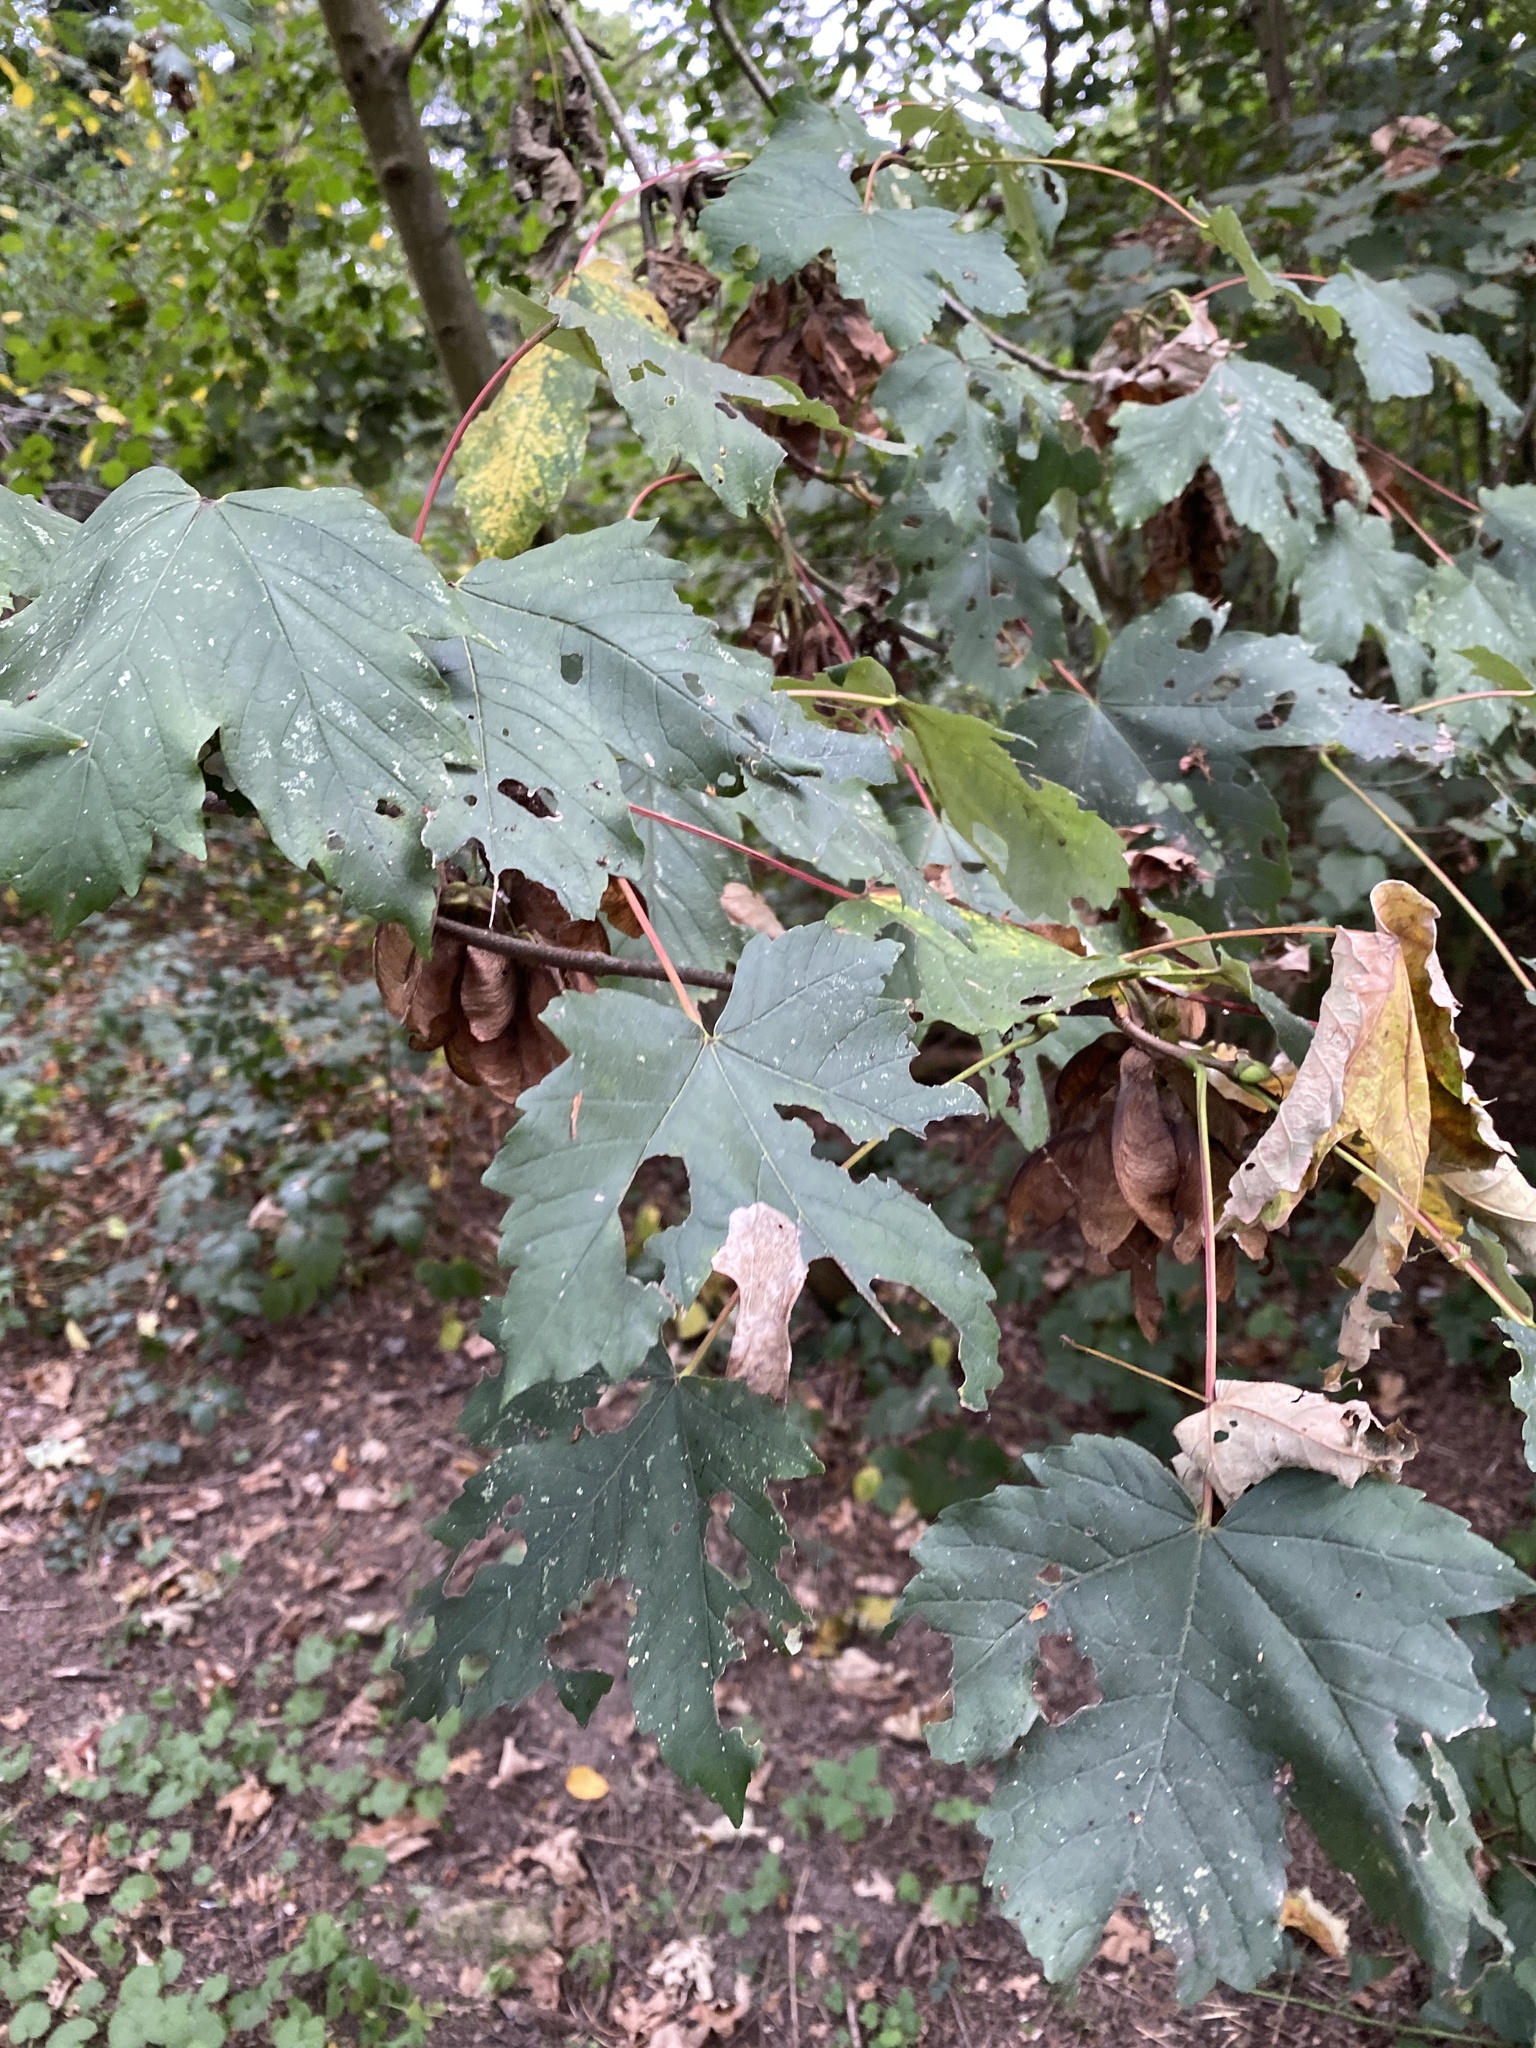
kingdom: Plantae
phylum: Tracheophyta
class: Magnoliopsida
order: Sapindales
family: Sapindaceae
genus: Acer
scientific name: Acer pseudoplatanus
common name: Sycamore
